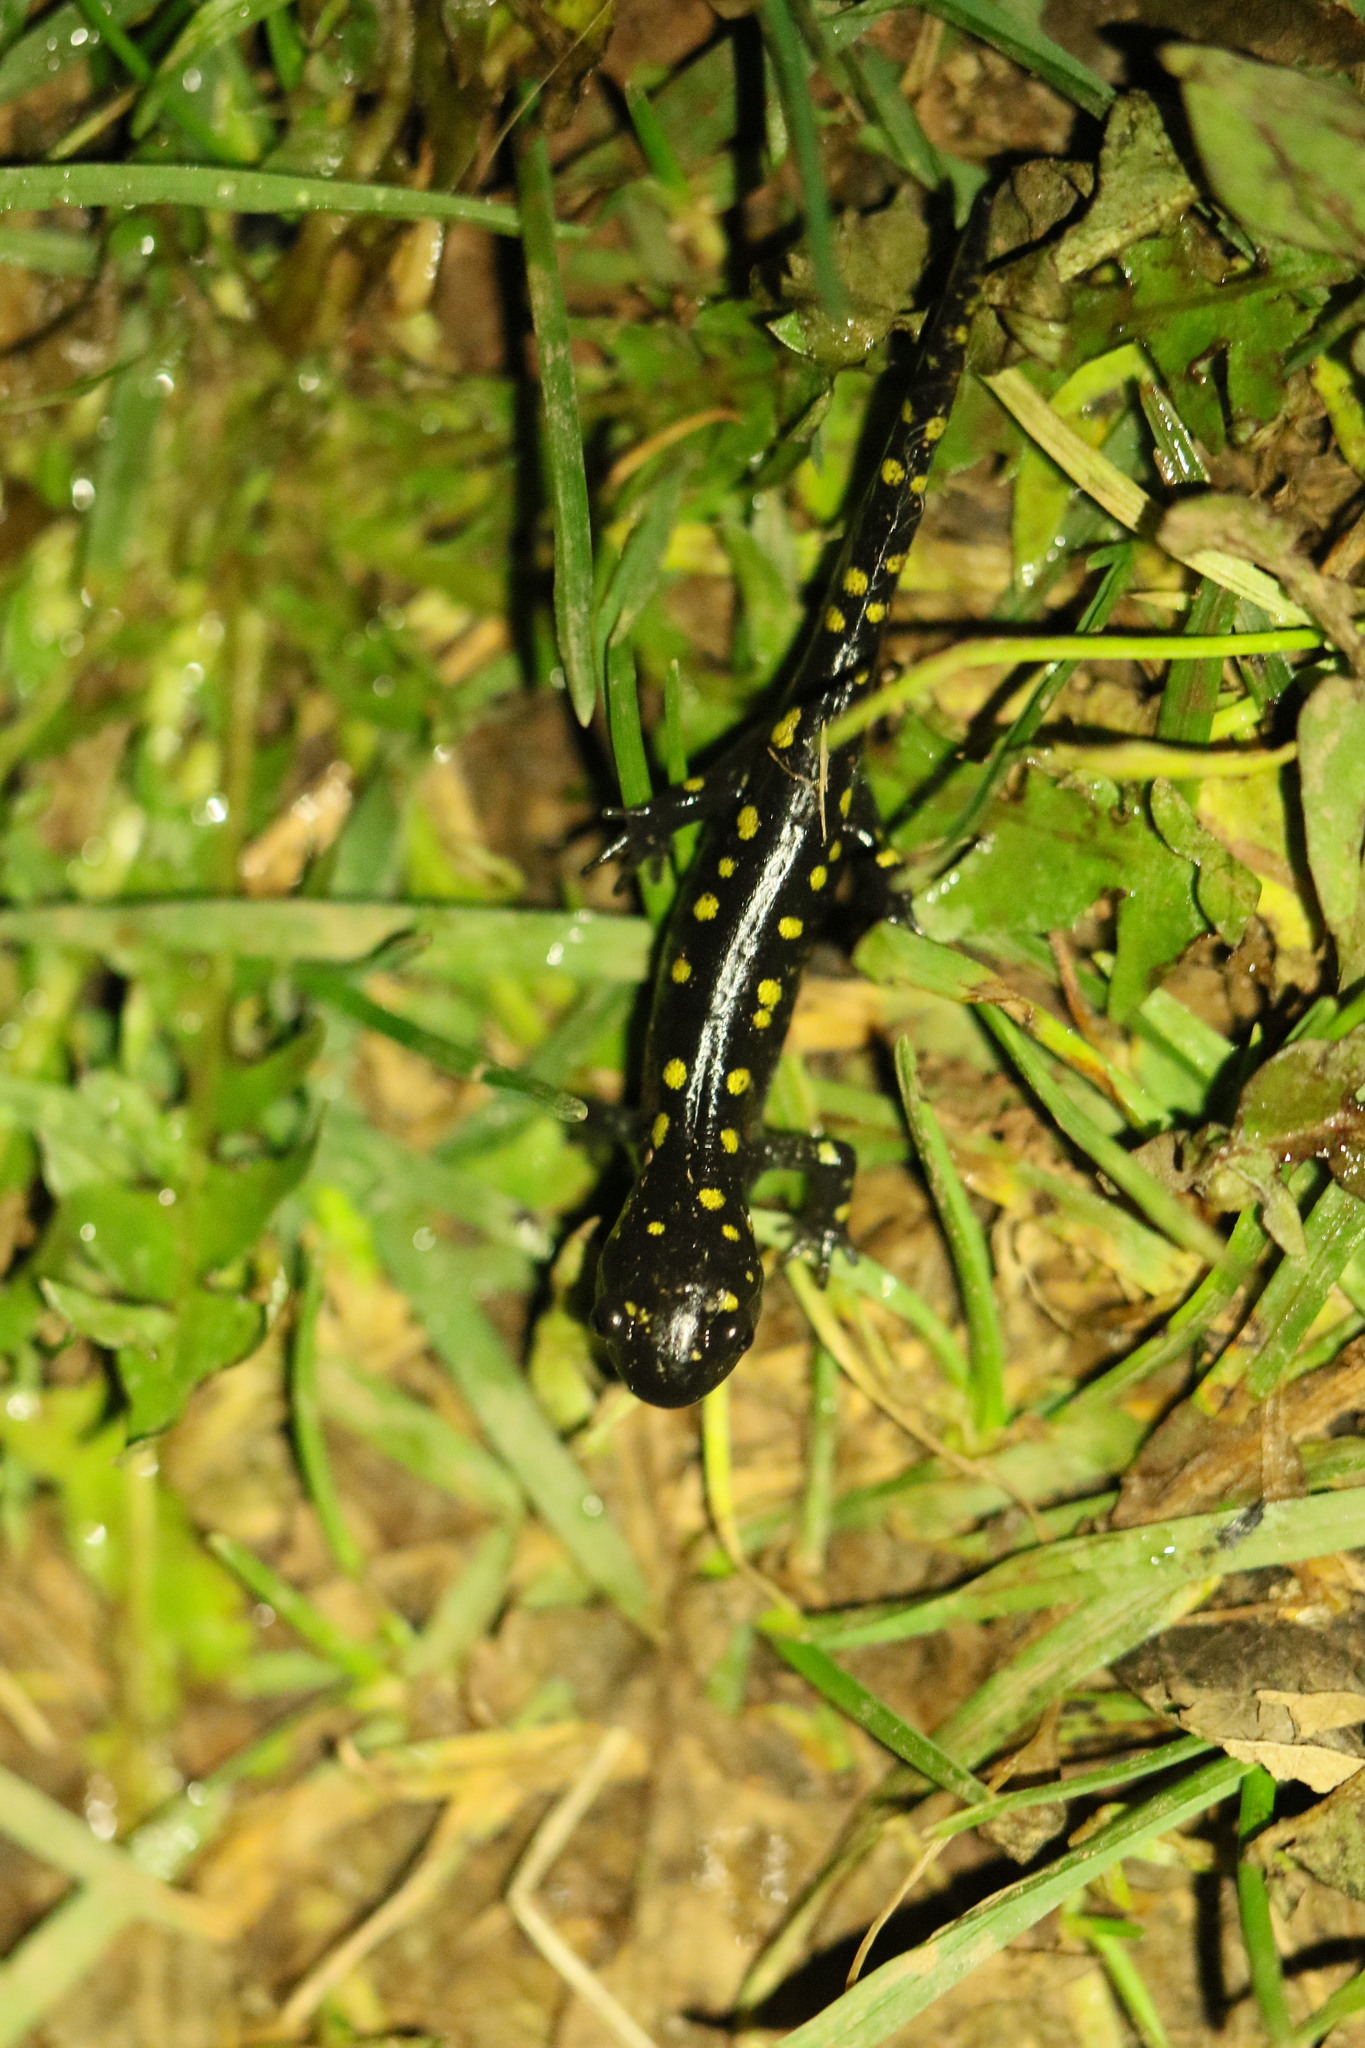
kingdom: Animalia
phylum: Chordata
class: Amphibia
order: Caudata
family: Ambystomatidae
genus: Ambystoma
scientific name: Ambystoma maculatum
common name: Spotted salamander
